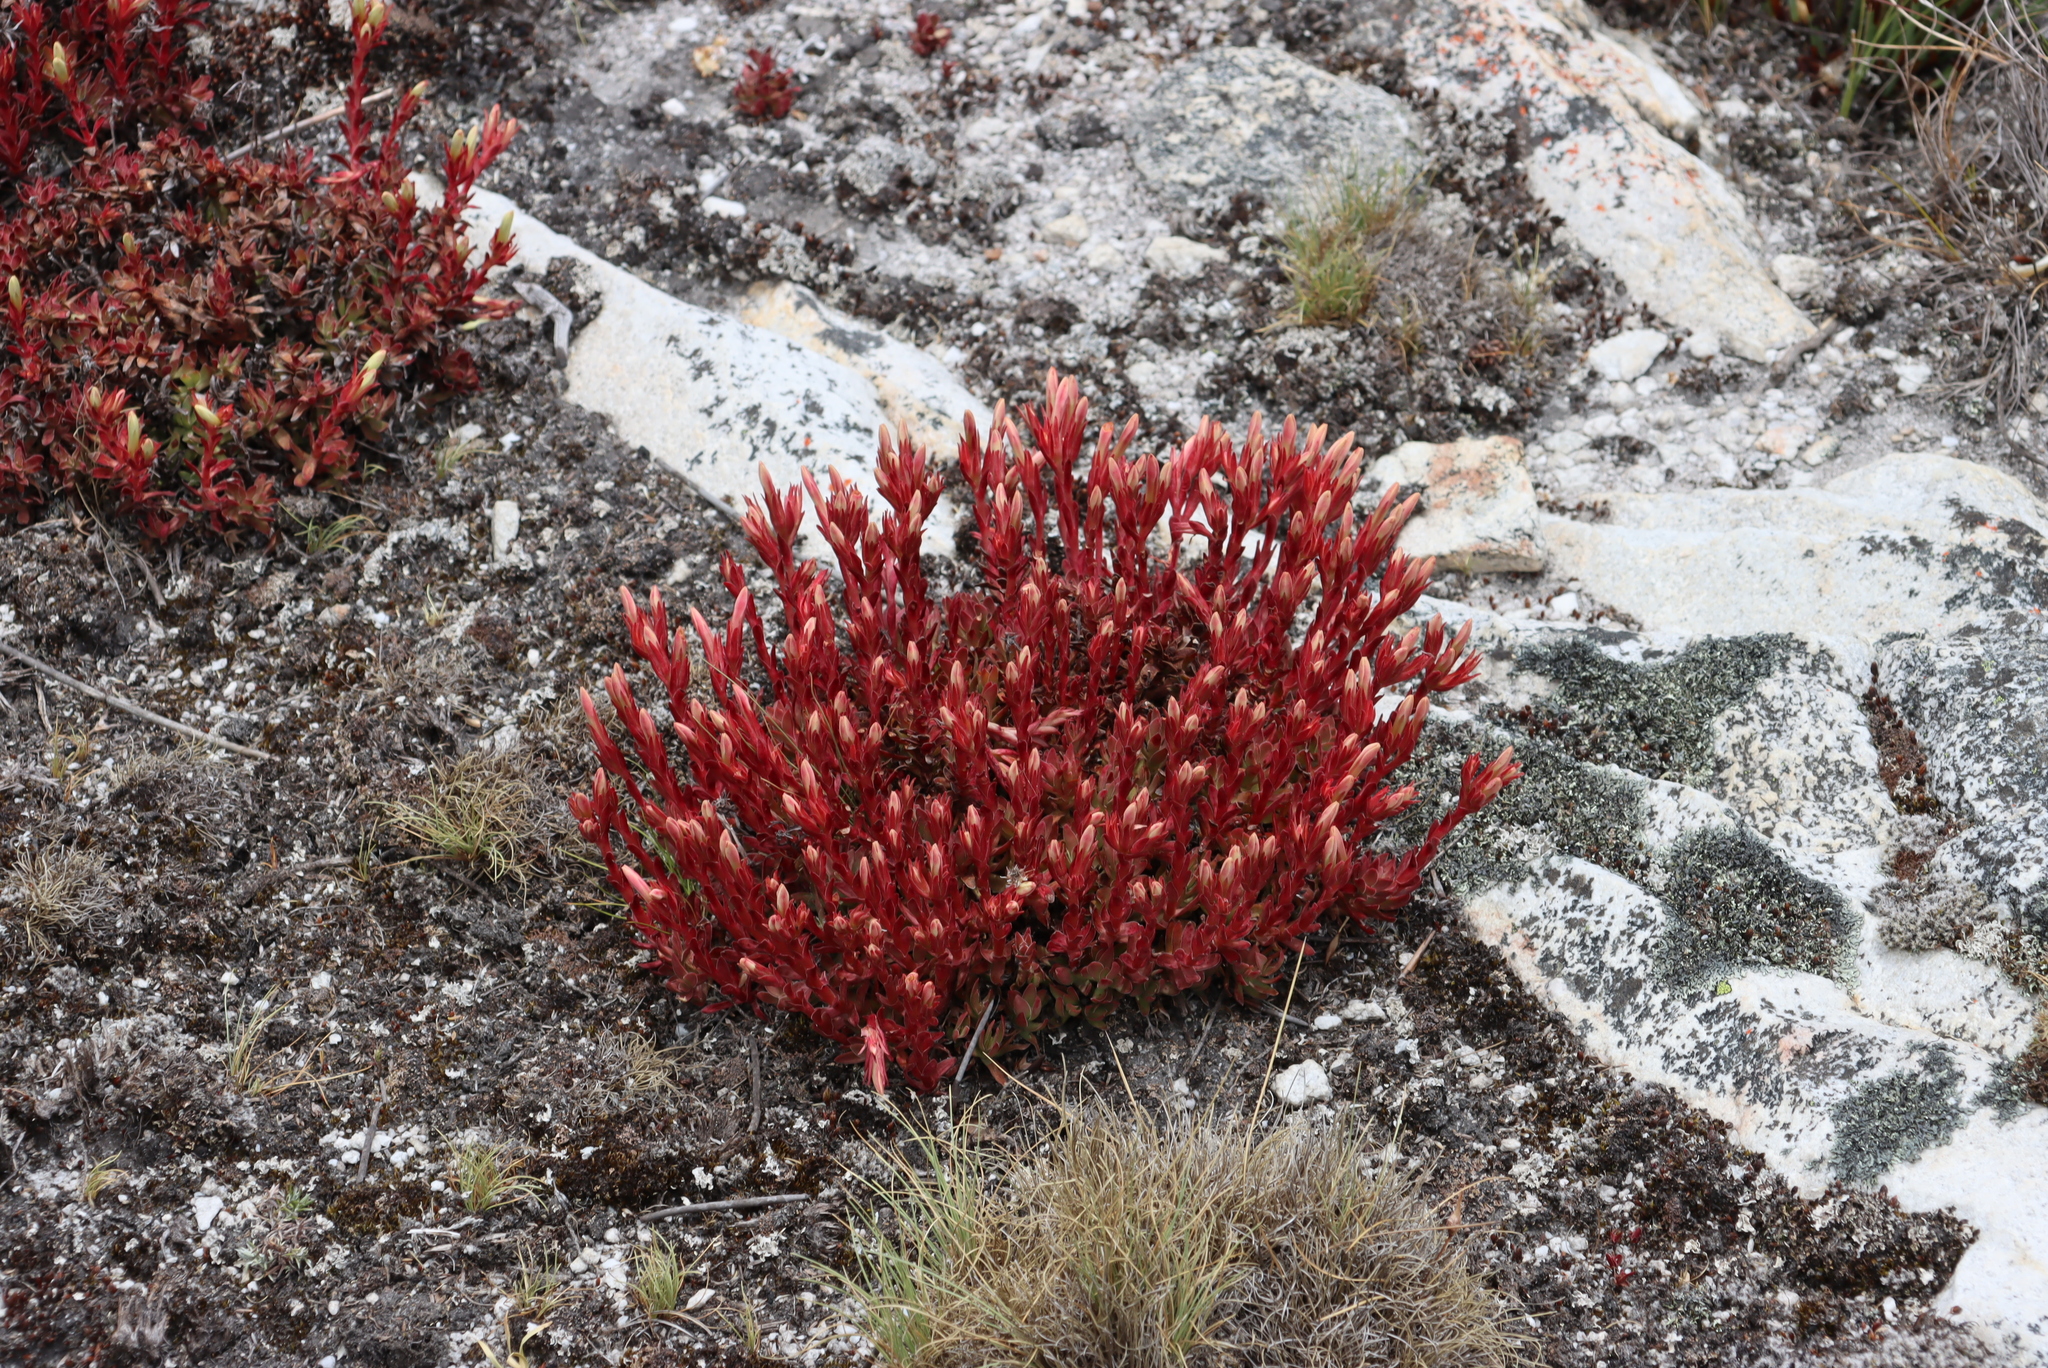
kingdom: Plantae
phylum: Tracheophyta
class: Magnoliopsida
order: Saxifragales
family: Crassulaceae
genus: Crassula
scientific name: Crassula obtusa
